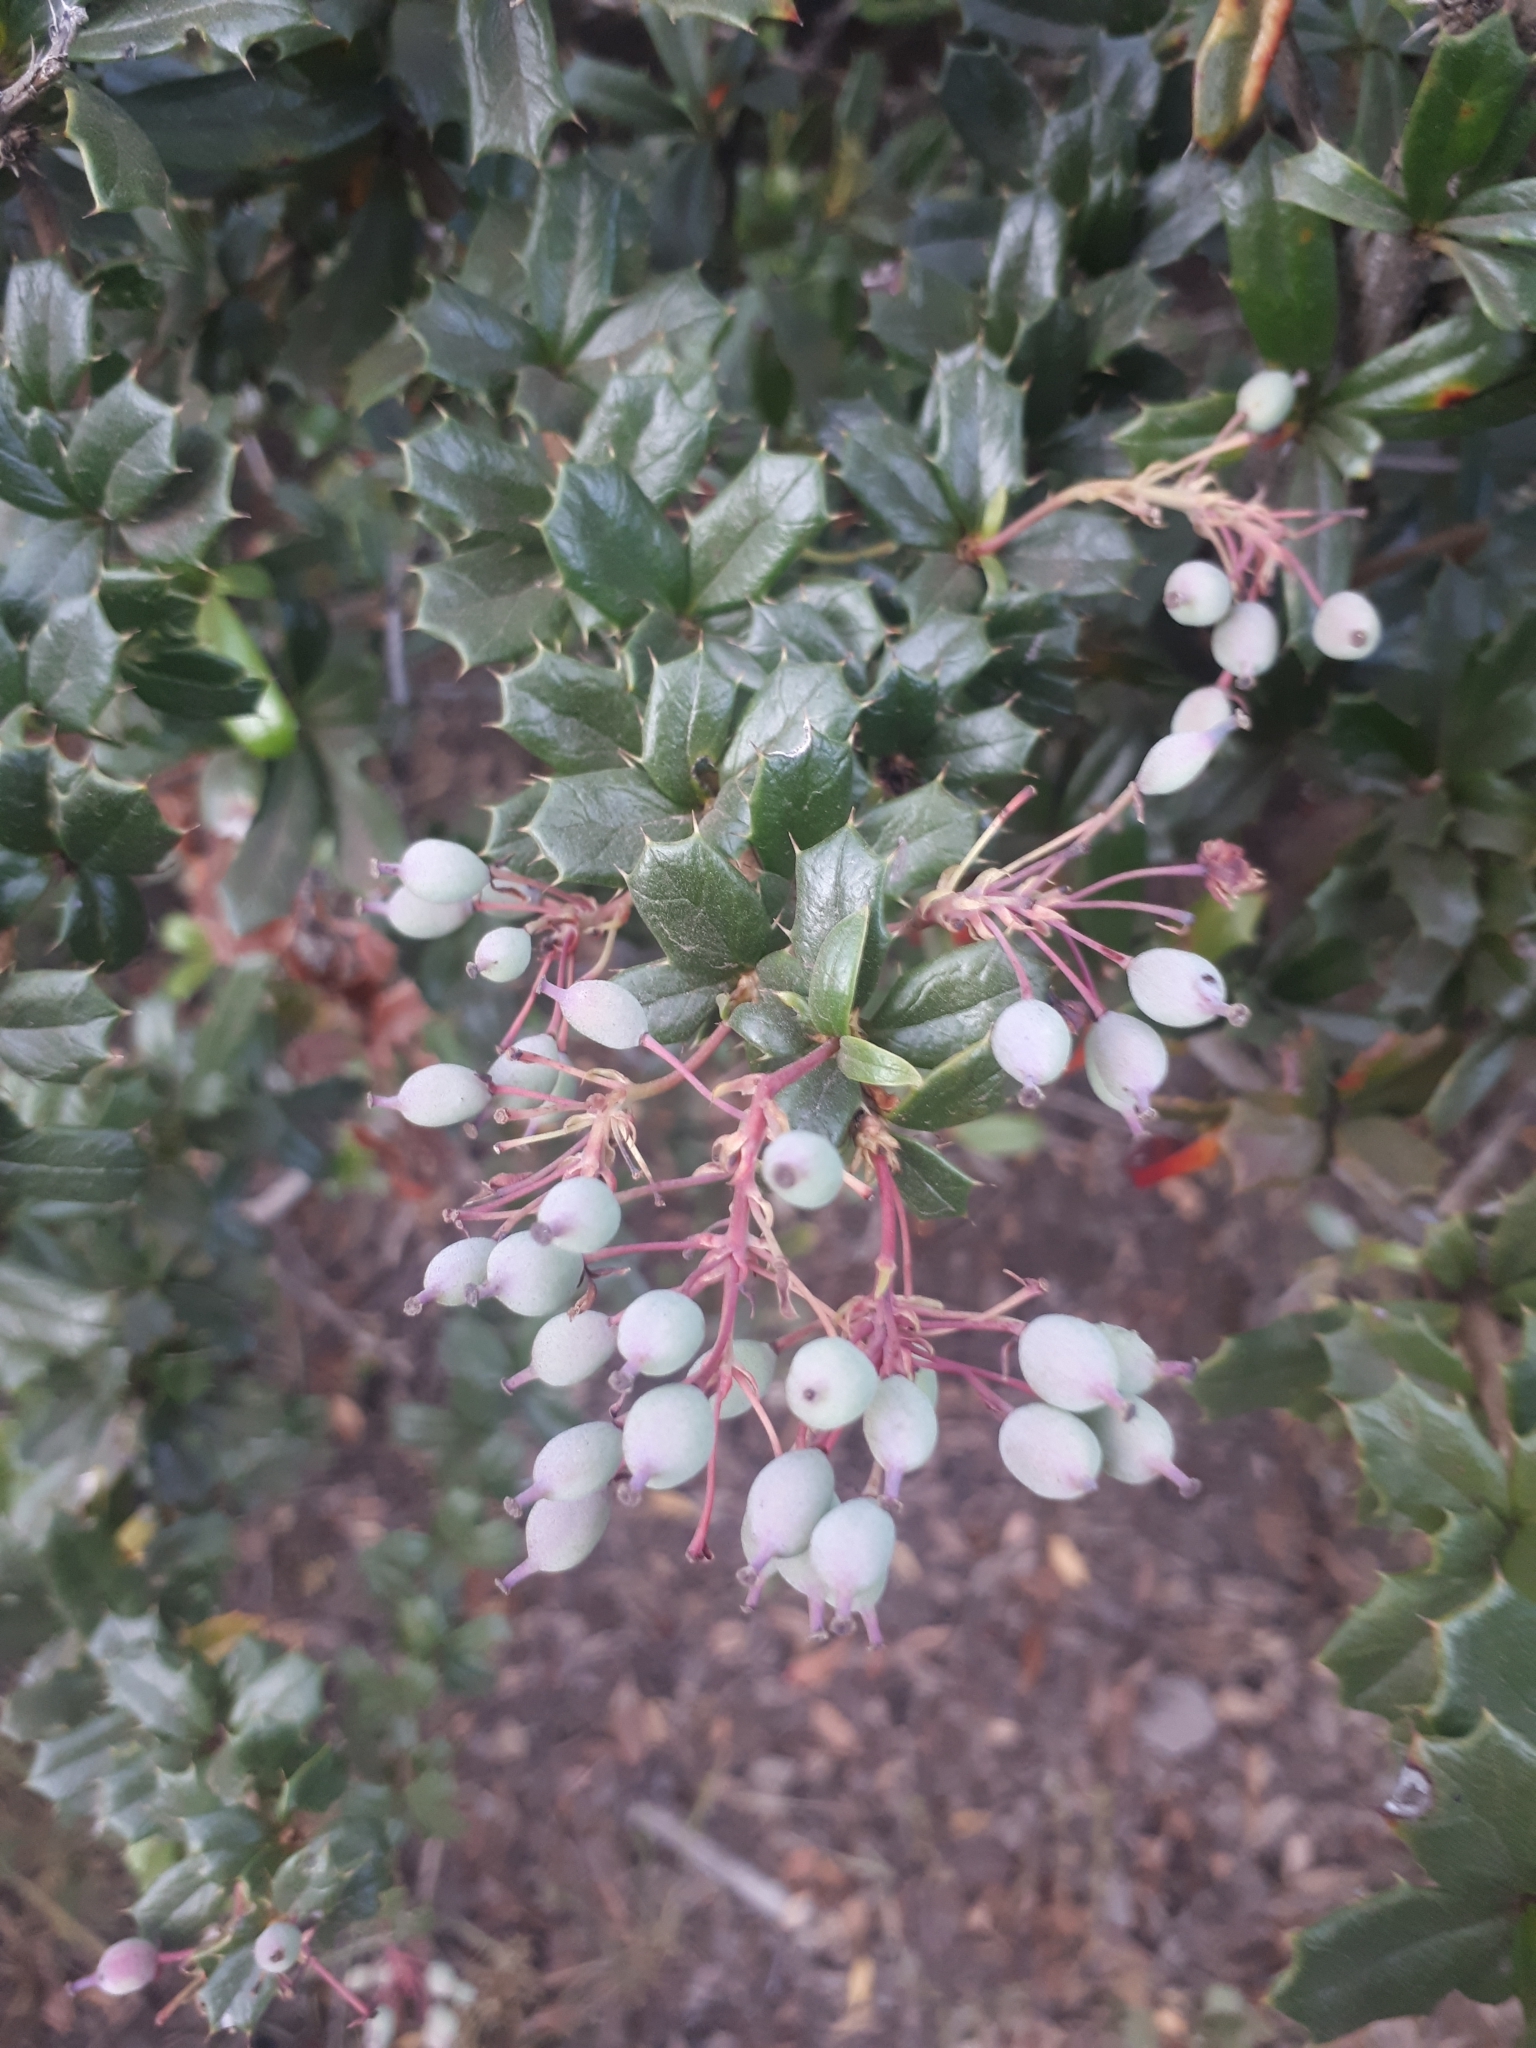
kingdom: Plantae
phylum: Tracheophyta
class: Magnoliopsida
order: Ranunculales
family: Berberidaceae
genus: Berberis
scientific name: Berberis darwinii
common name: Darwin's barberry
